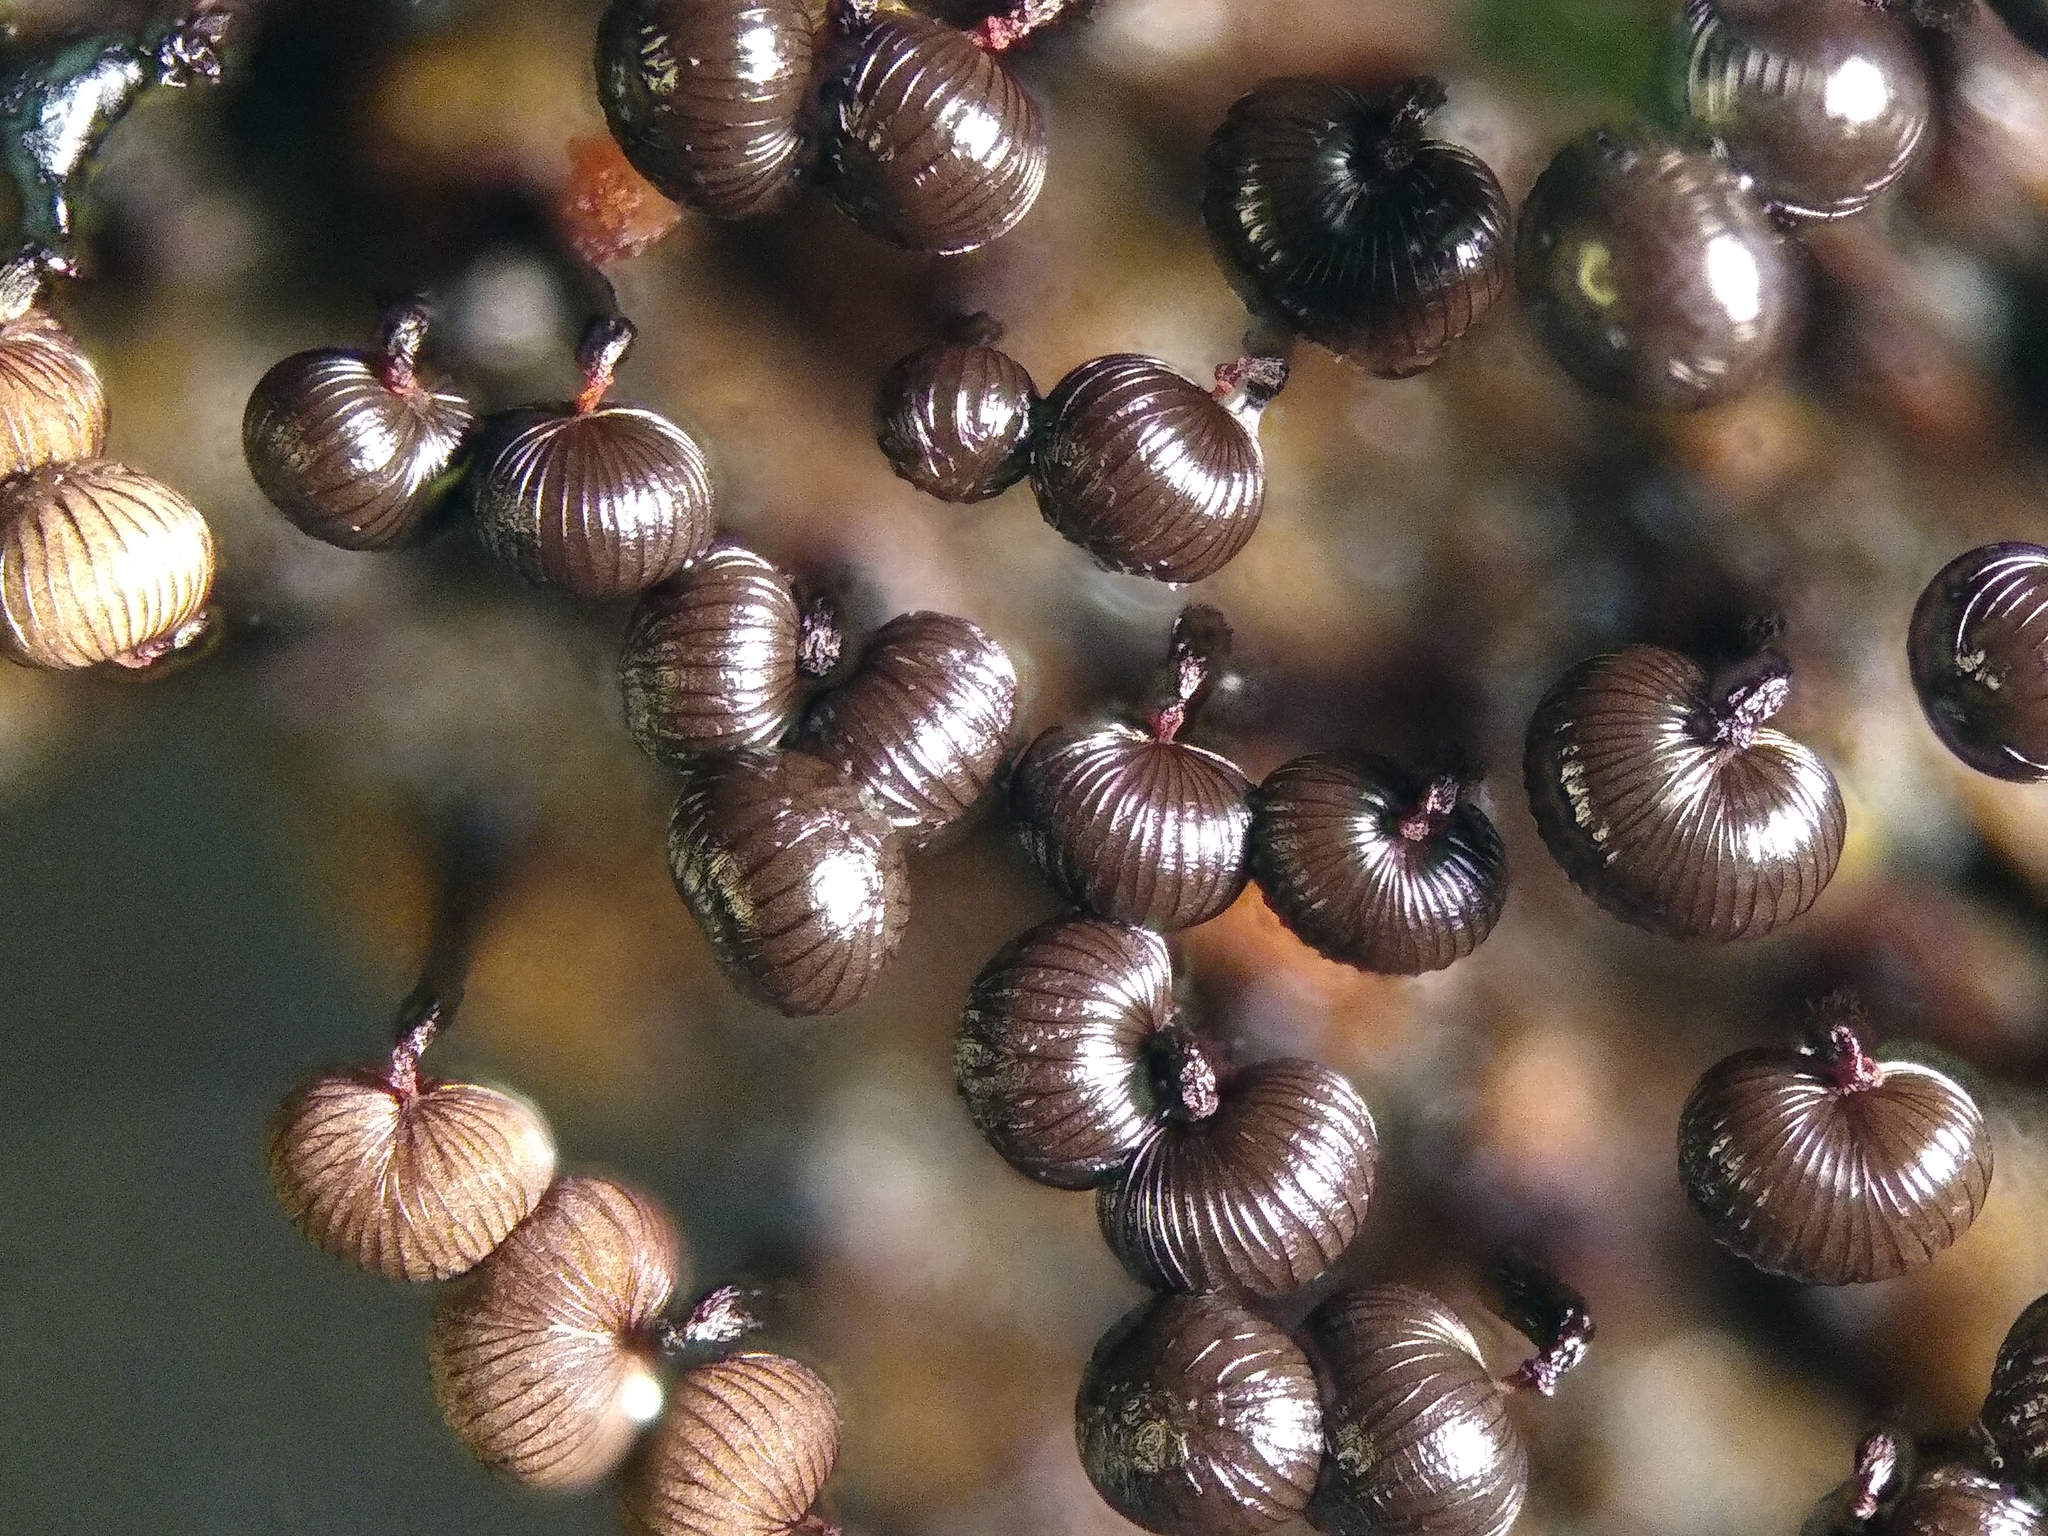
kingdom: Protozoa
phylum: Mycetozoa
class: Myxomycetes
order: Cribrariales
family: Cribrariaceae
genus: Cribraria
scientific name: Cribraria cancellata
